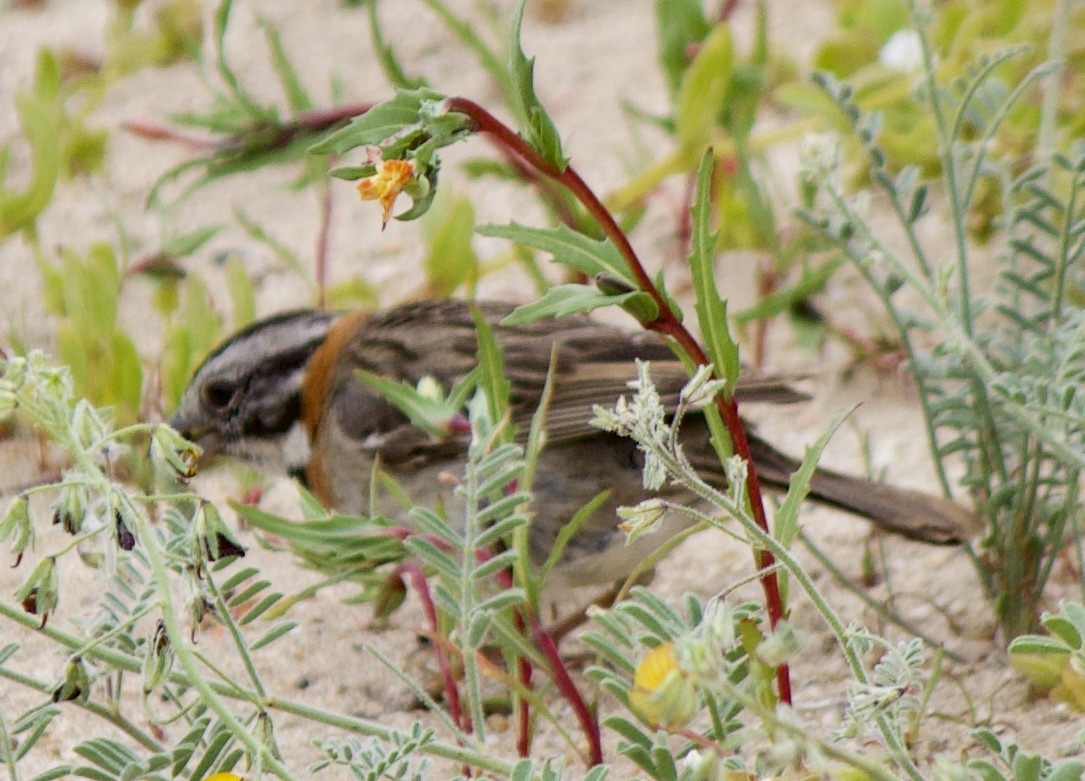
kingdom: Animalia
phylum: Chordata
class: Aves
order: Passeriformes
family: Passerellidae
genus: Zonotrichia
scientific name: Zonotrichia capensis
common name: Rufous-collared sparrow
